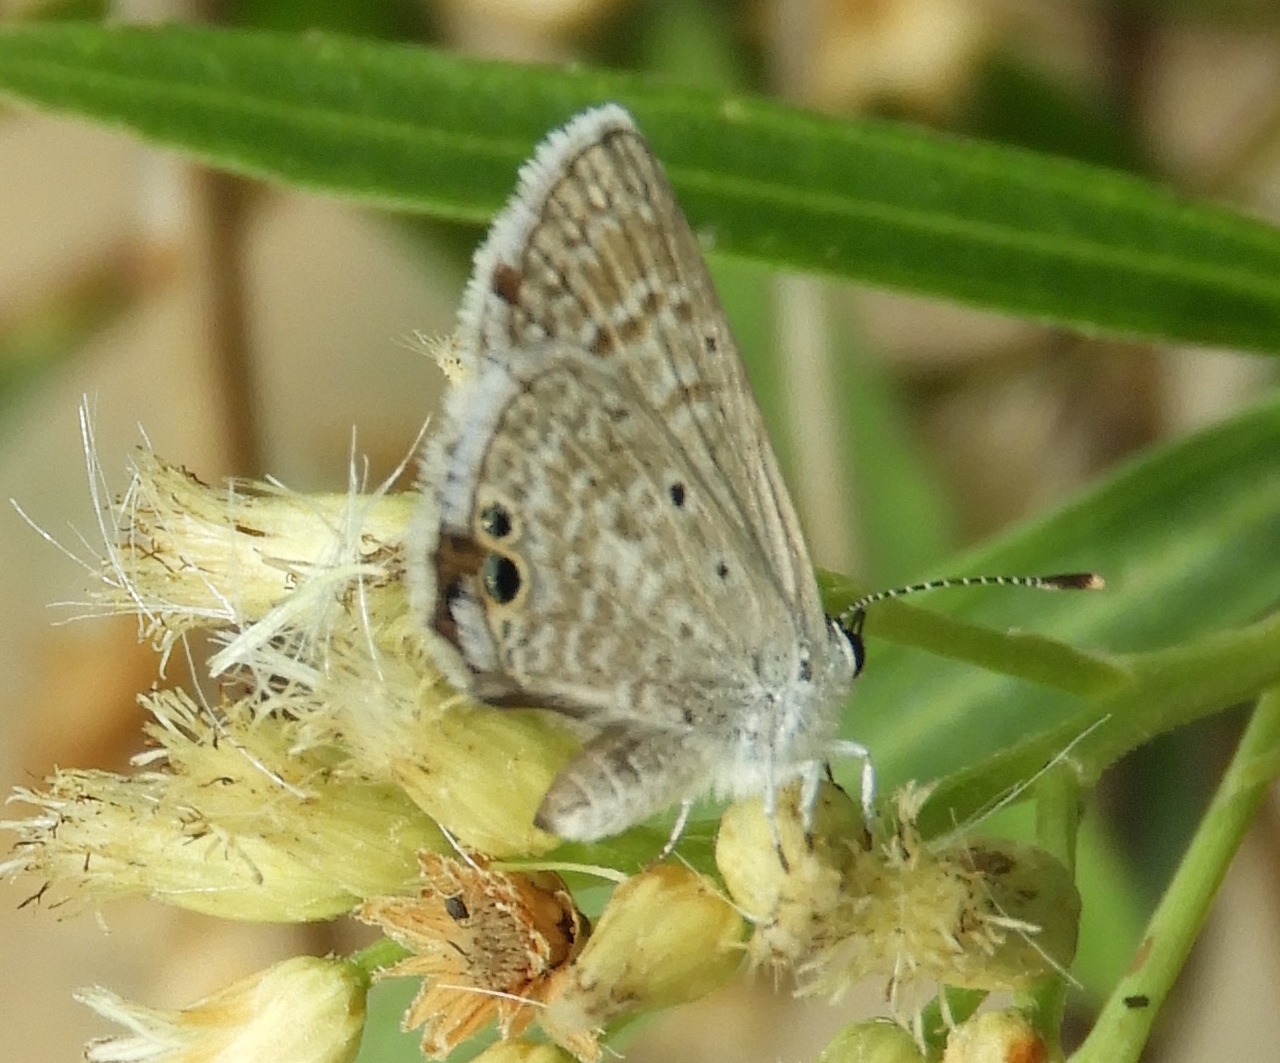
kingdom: Animalia
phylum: Arthropoda
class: Insecta
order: Lepidoptera
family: Lycaenidae
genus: Hemiargus
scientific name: Hemiargus ceraunus
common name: Ceraunus blue
